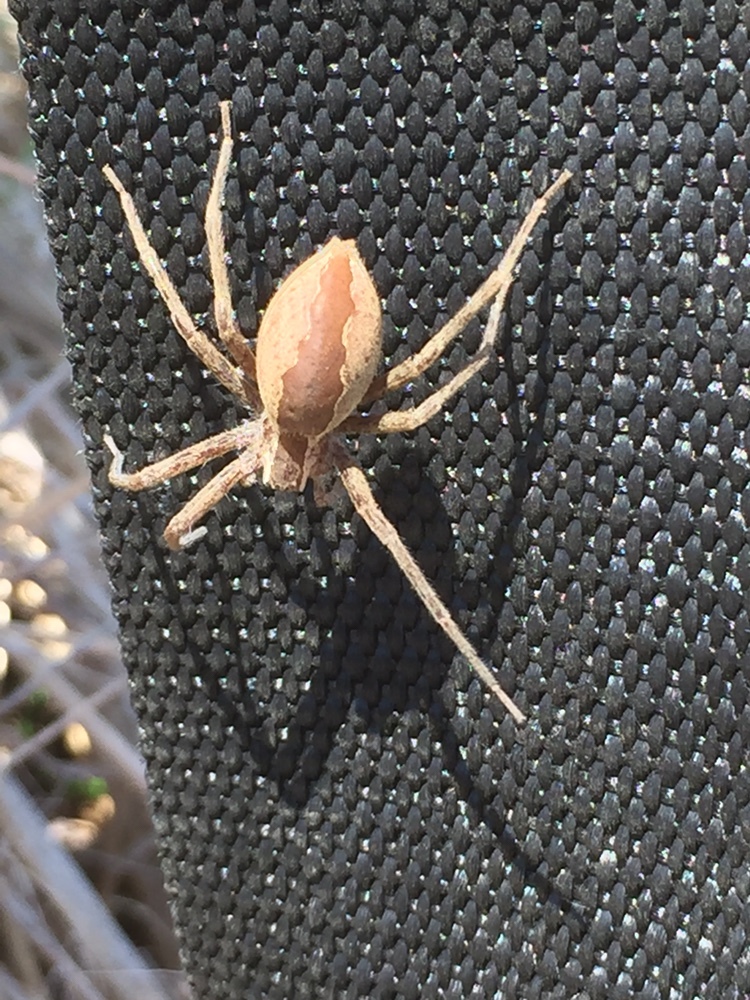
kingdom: Animalia
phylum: Arthropoda
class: Arachnida
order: Araneae
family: Pisauridae
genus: Pisaurina
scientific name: Pisaurina mira
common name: American nursery web spider
